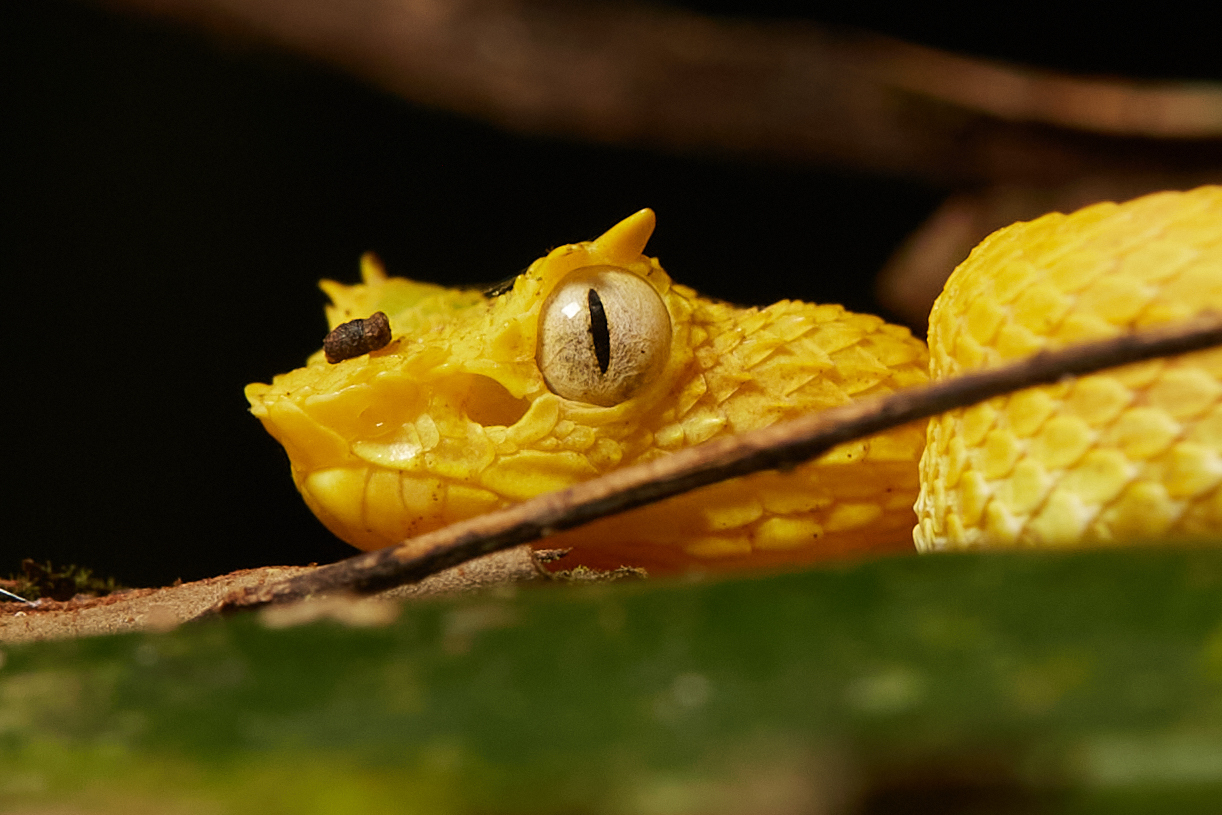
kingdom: Animalia
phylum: Chordata
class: Squamata
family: Viperidae
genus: Bothriechis
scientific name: Bothriechis schlegelii
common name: Eyelash viper
